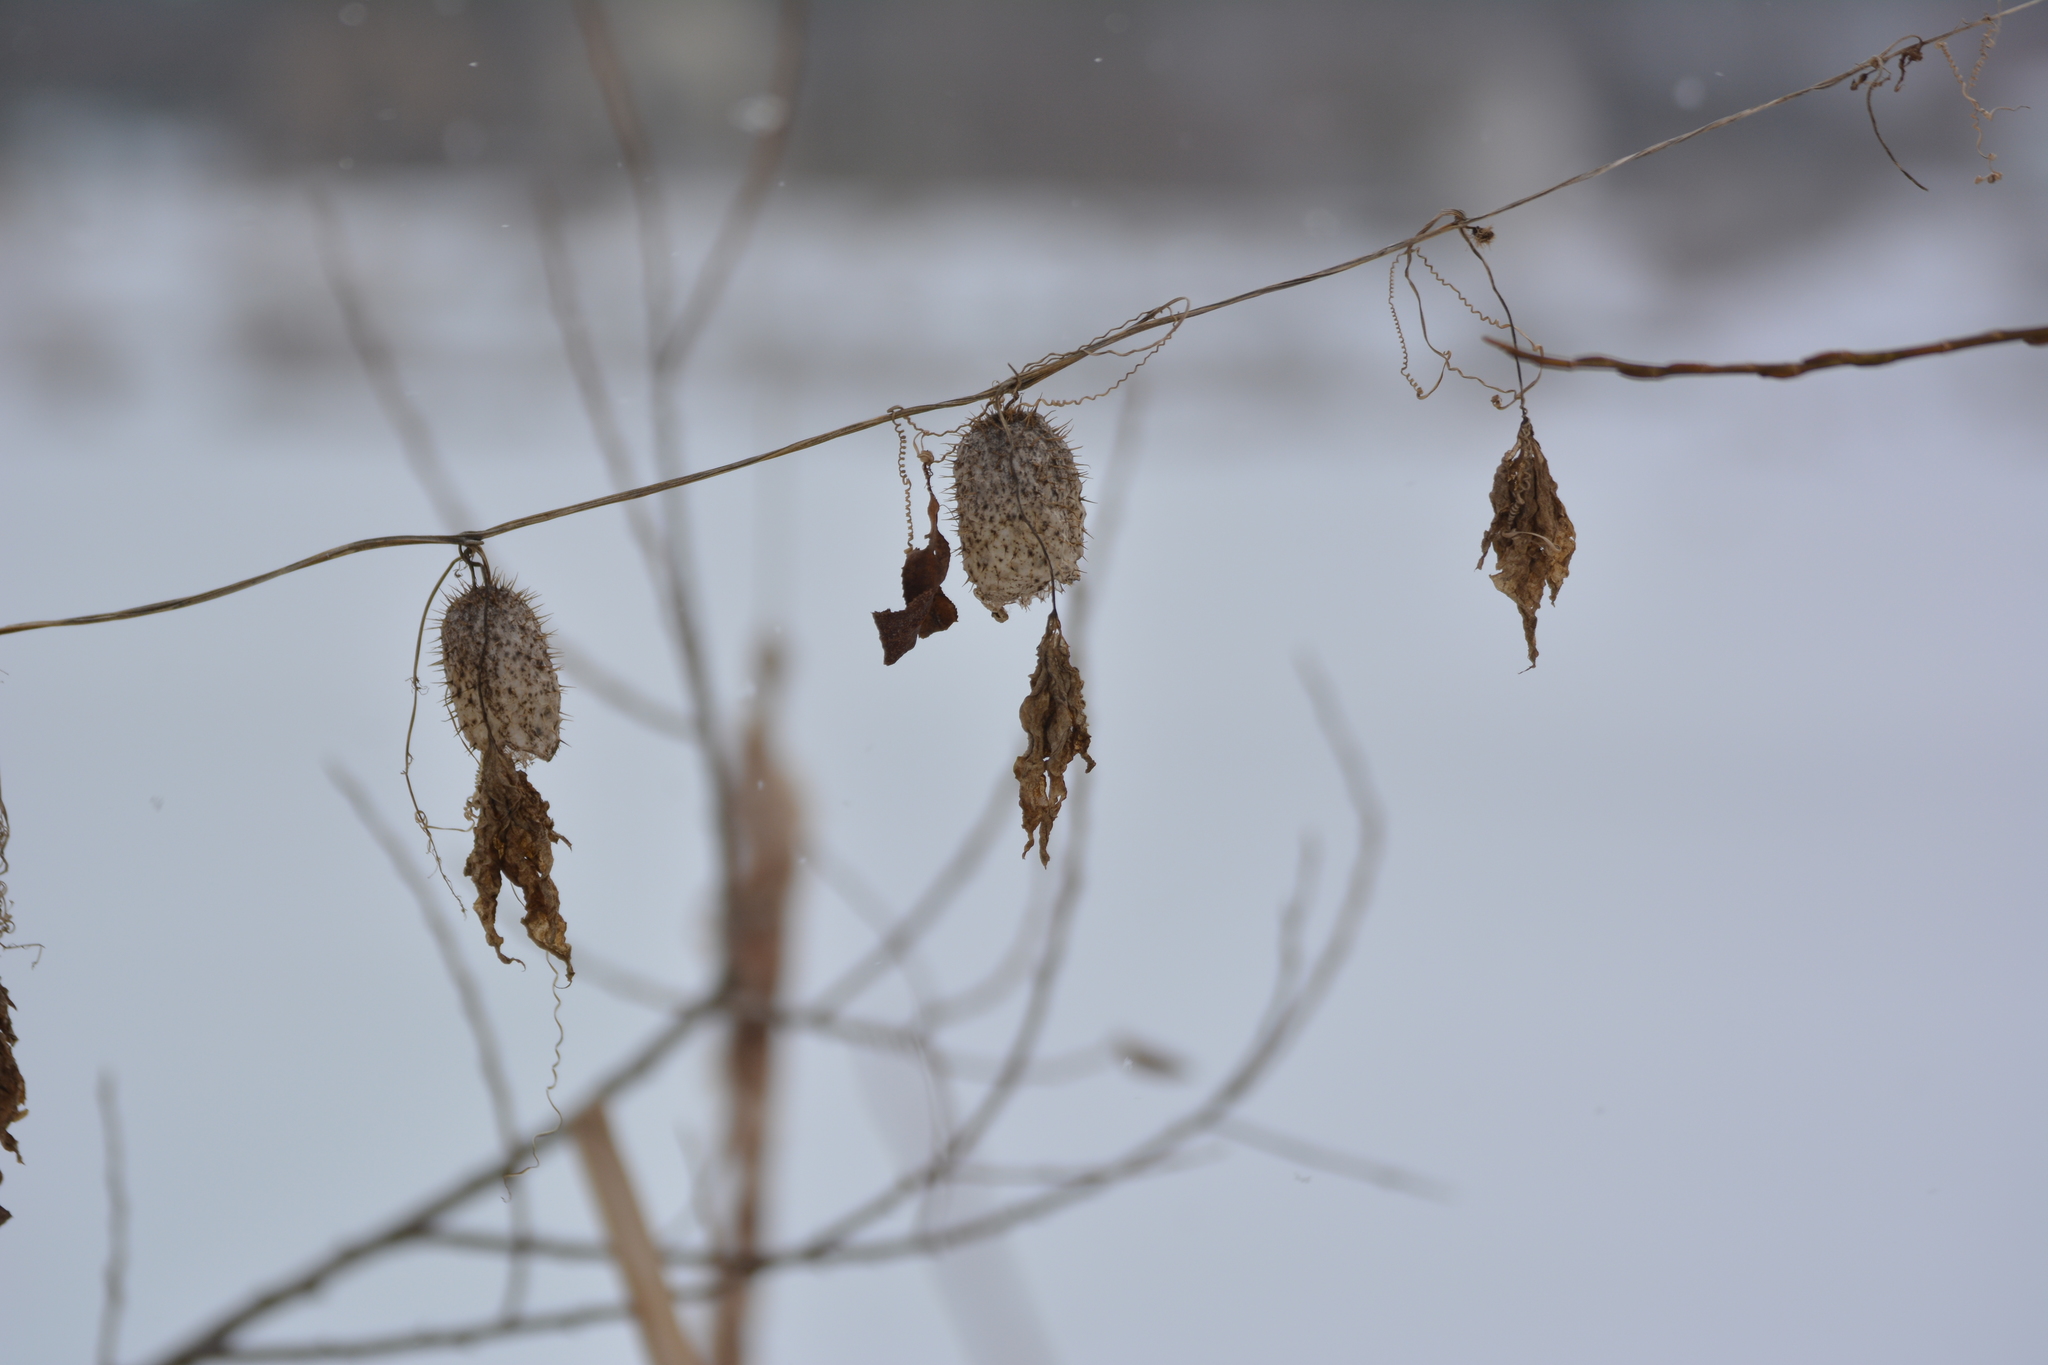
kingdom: Plantae
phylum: Tracheophyta
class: Magnoliopsida
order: Cucurbitales
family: Cucurbitaceae
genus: Echinocystis
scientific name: Echinocystis lobata
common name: Wild cucumber
